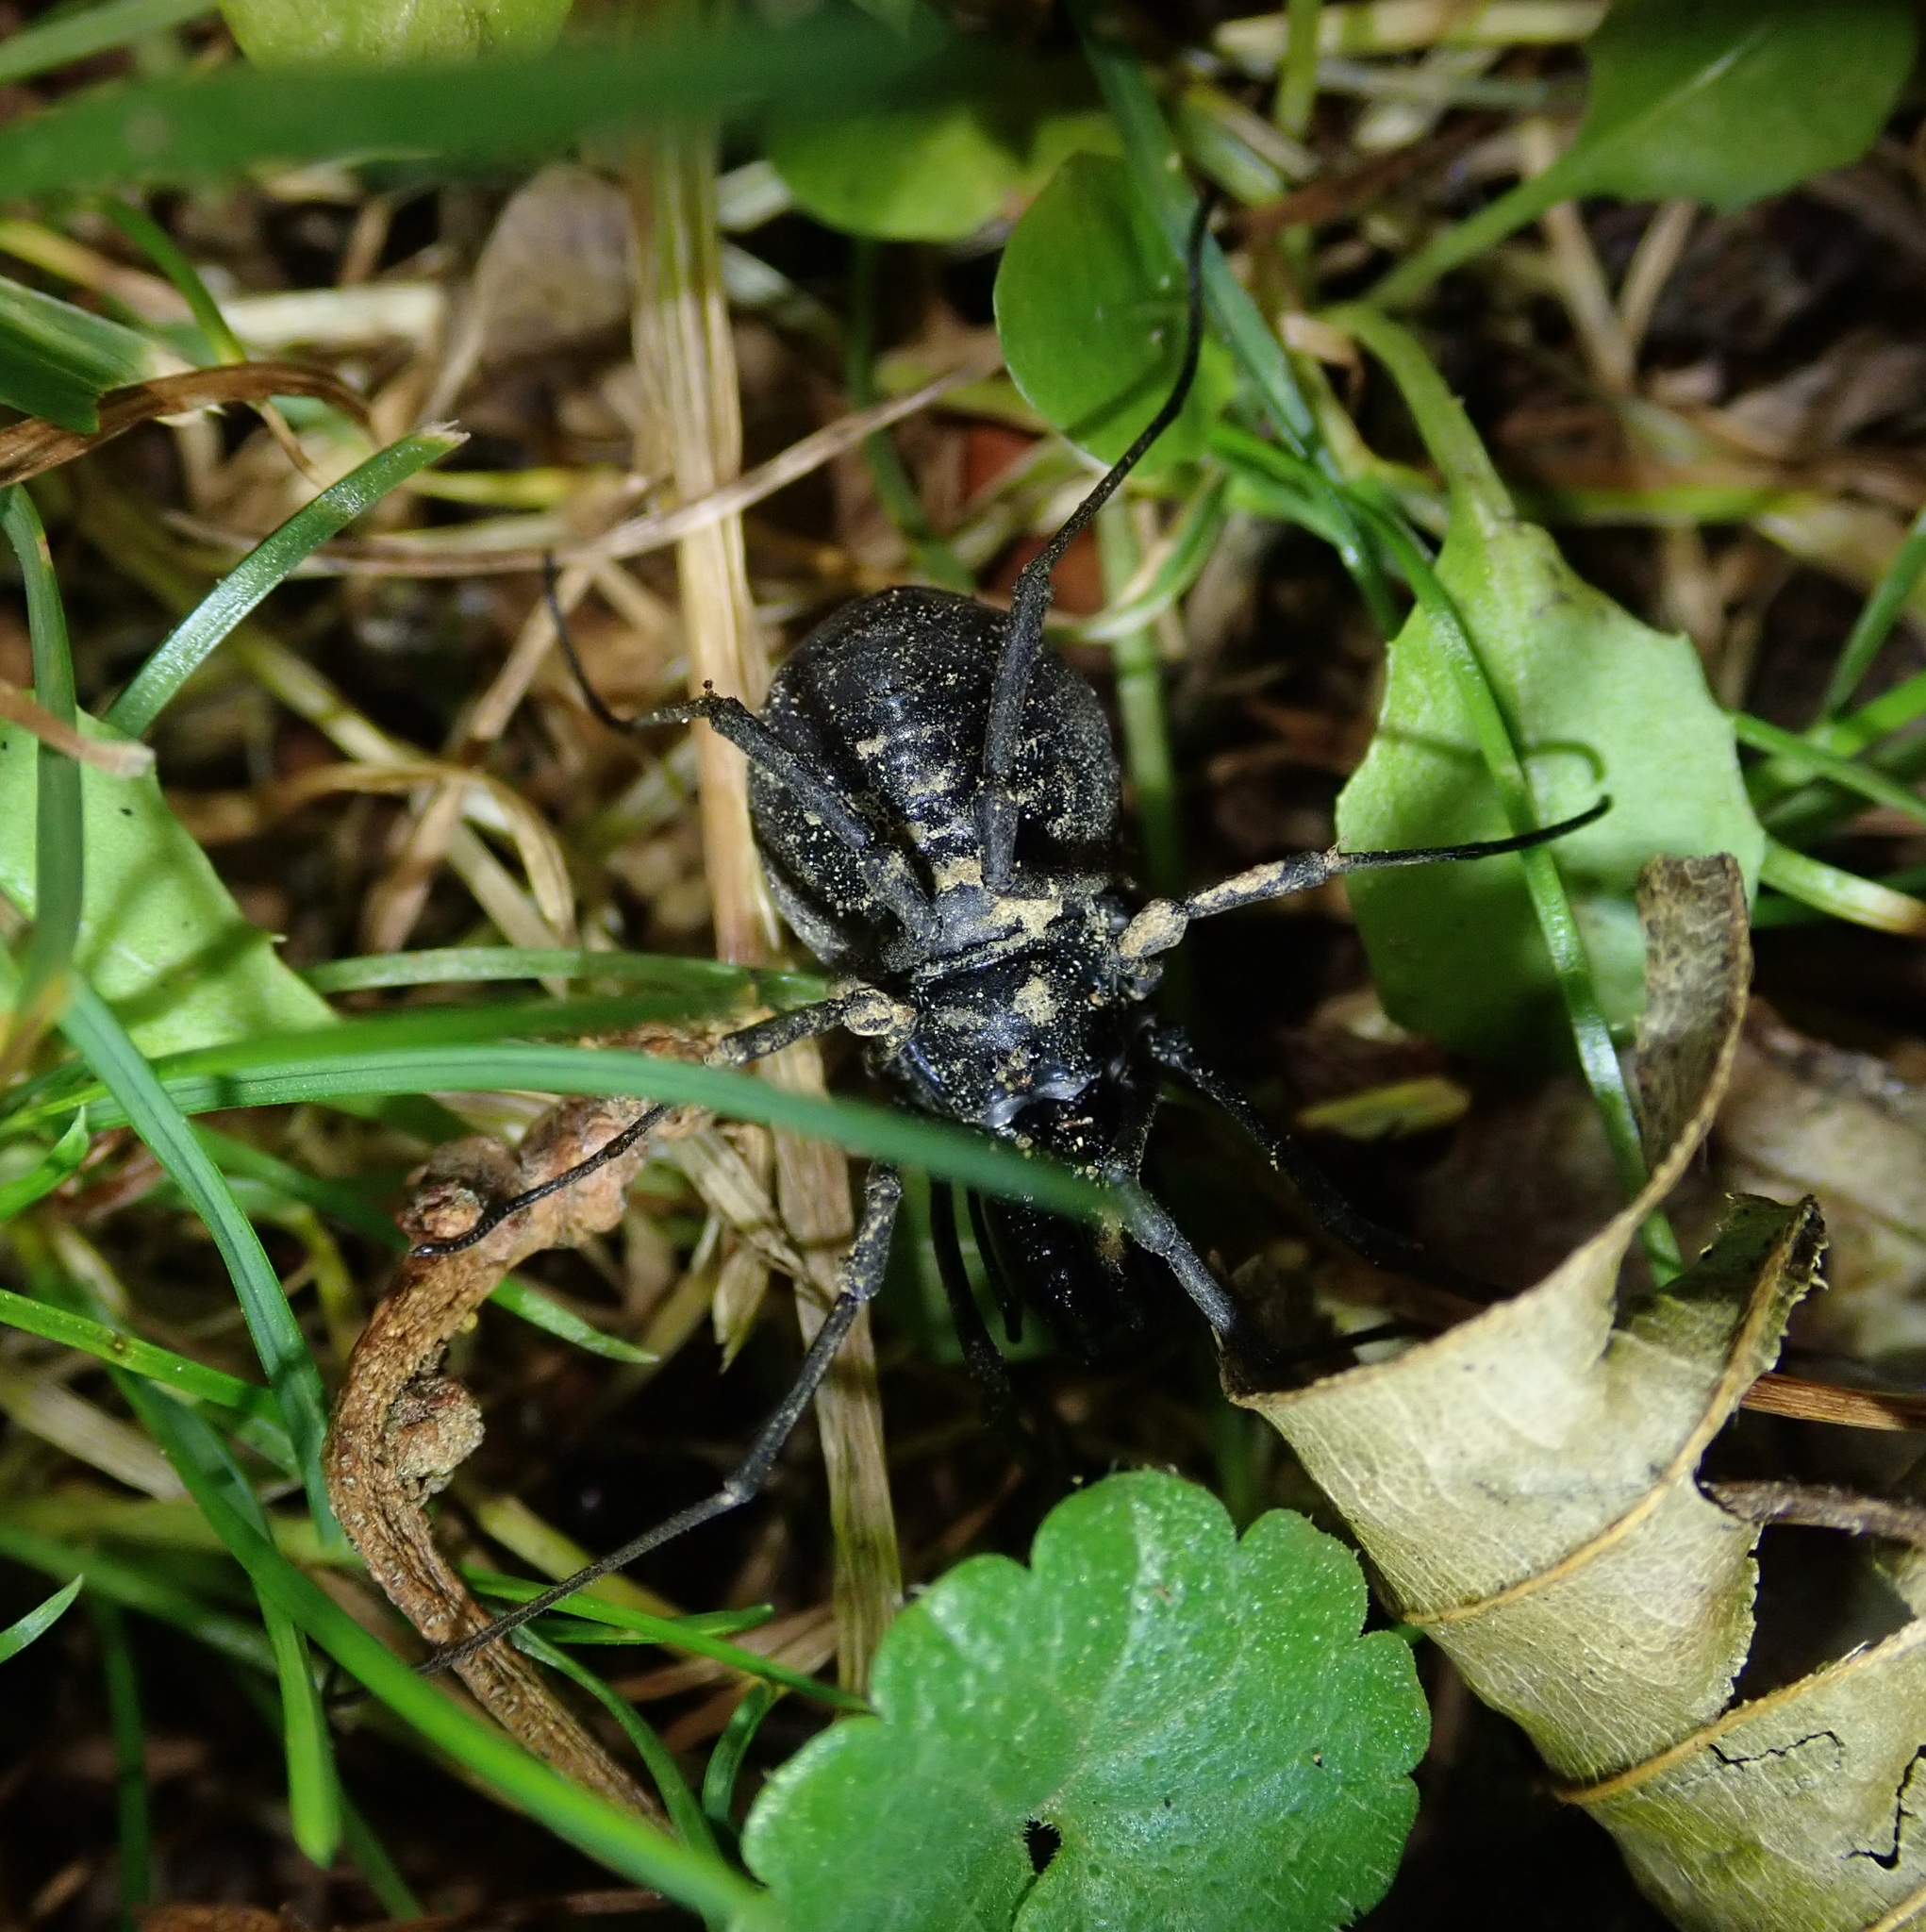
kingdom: Animalia
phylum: Arthropoda
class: Arachnida
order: Opiliones
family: Ischyropsalididae
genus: Ischyropsalis
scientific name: Ischyropsalis hellwigii
